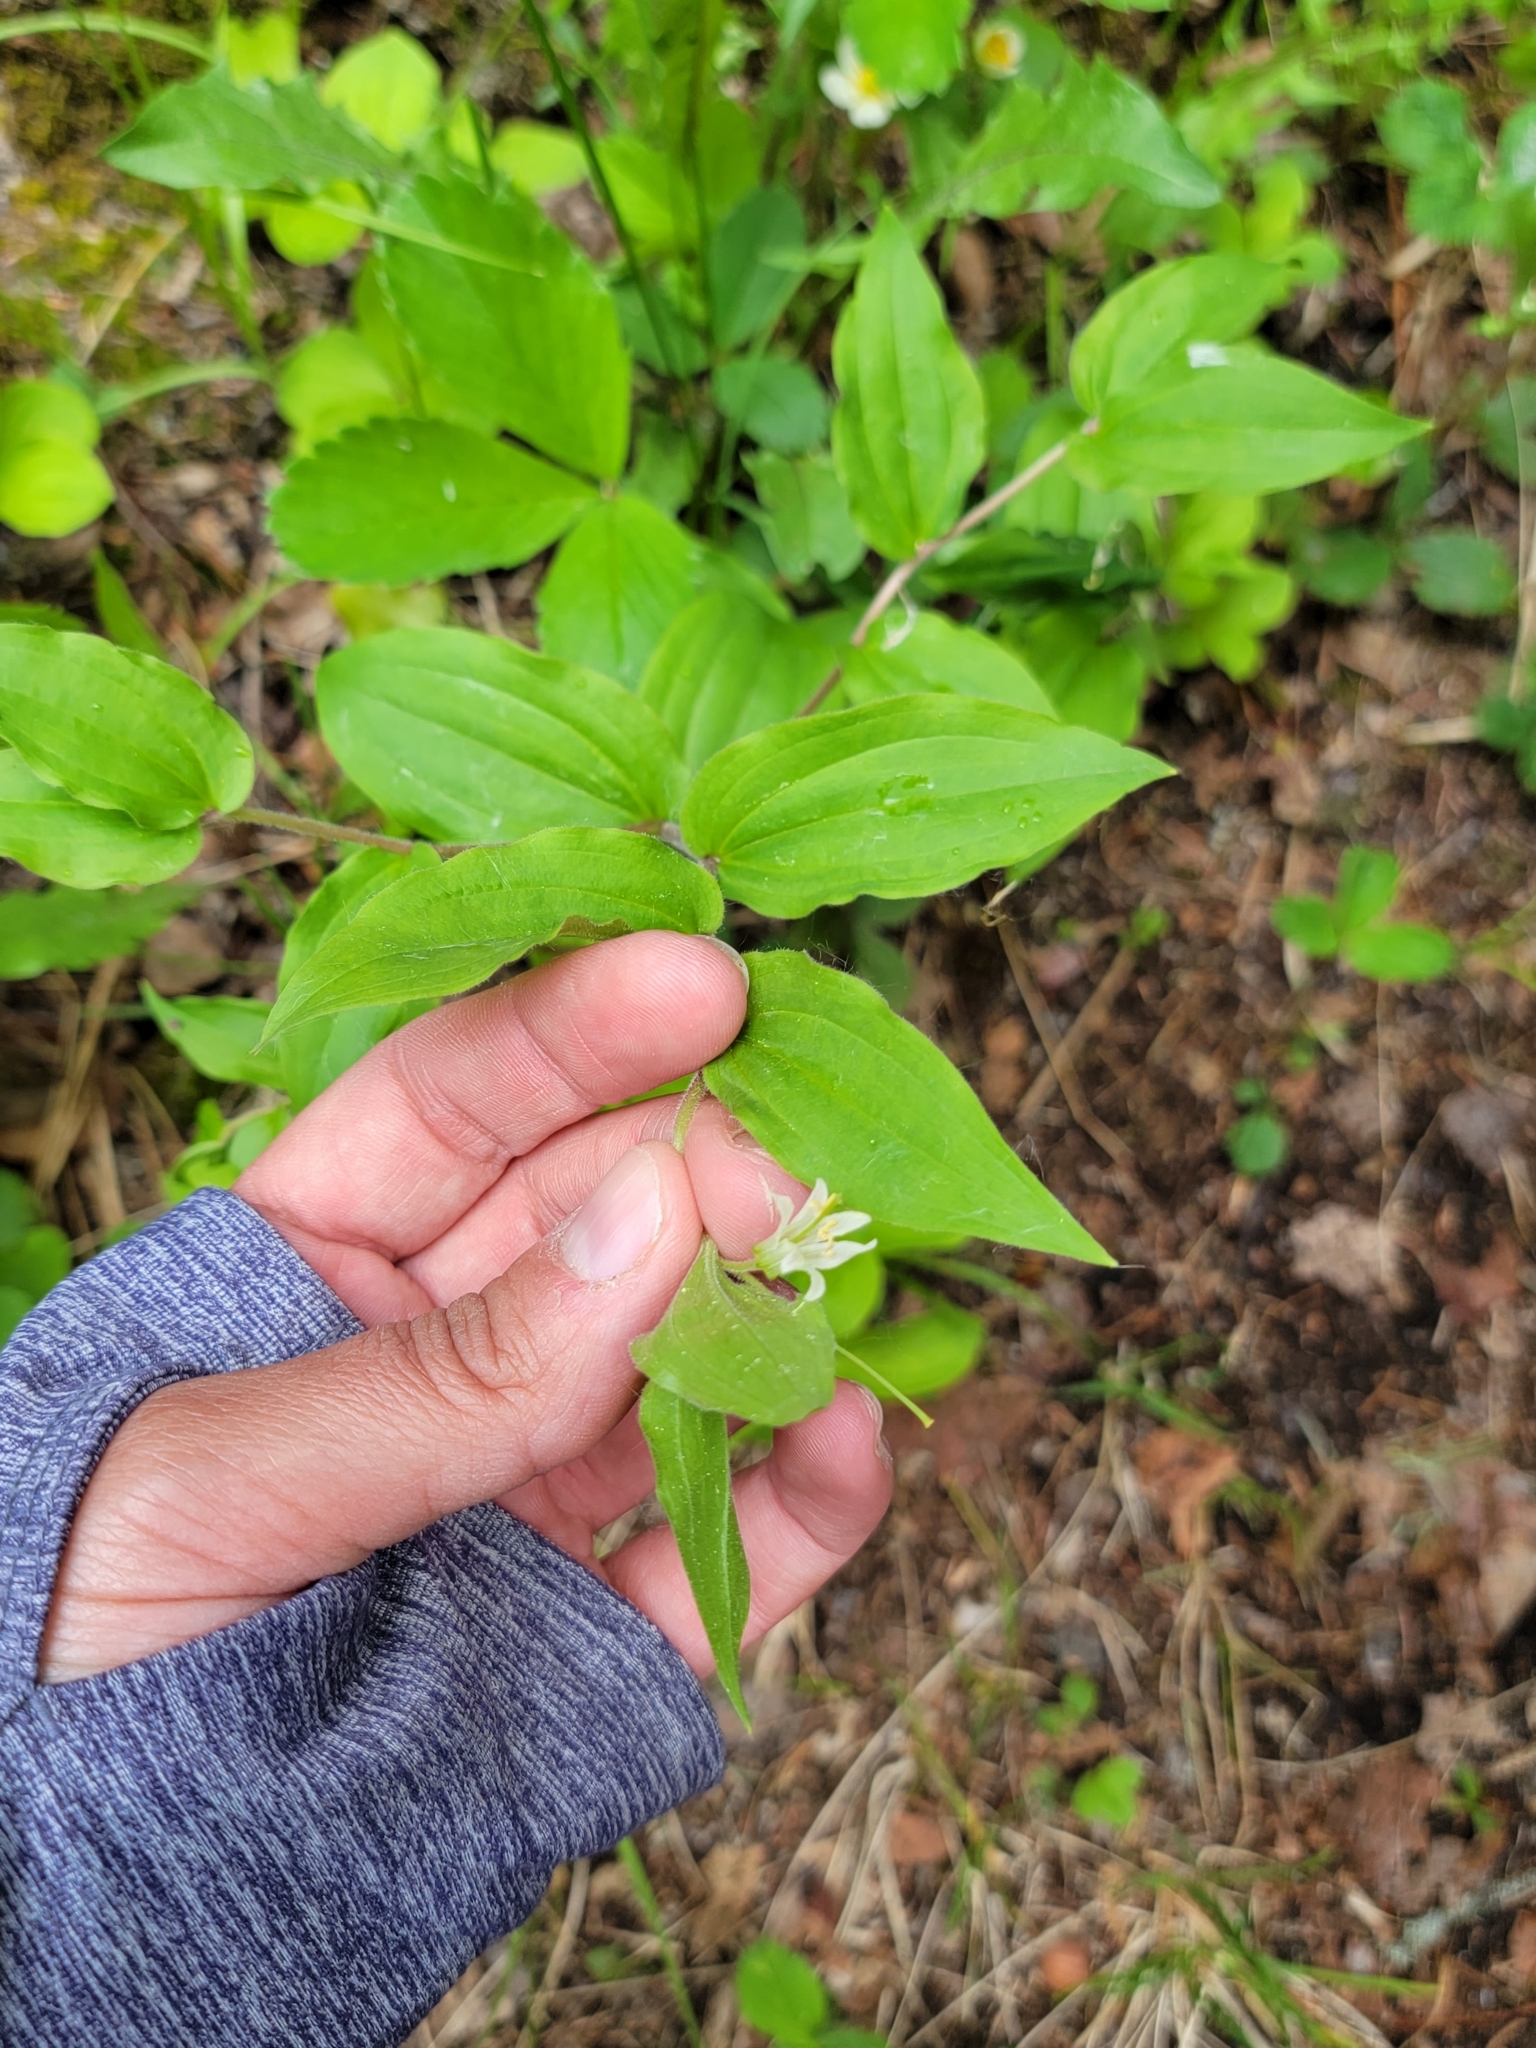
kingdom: Plantae
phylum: Tracheophyta
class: Liliopsida
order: Liliales
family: Liliaceae
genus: Prosartes
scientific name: Prosartes trachycarpa
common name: Rough-fruit fairy-bells
